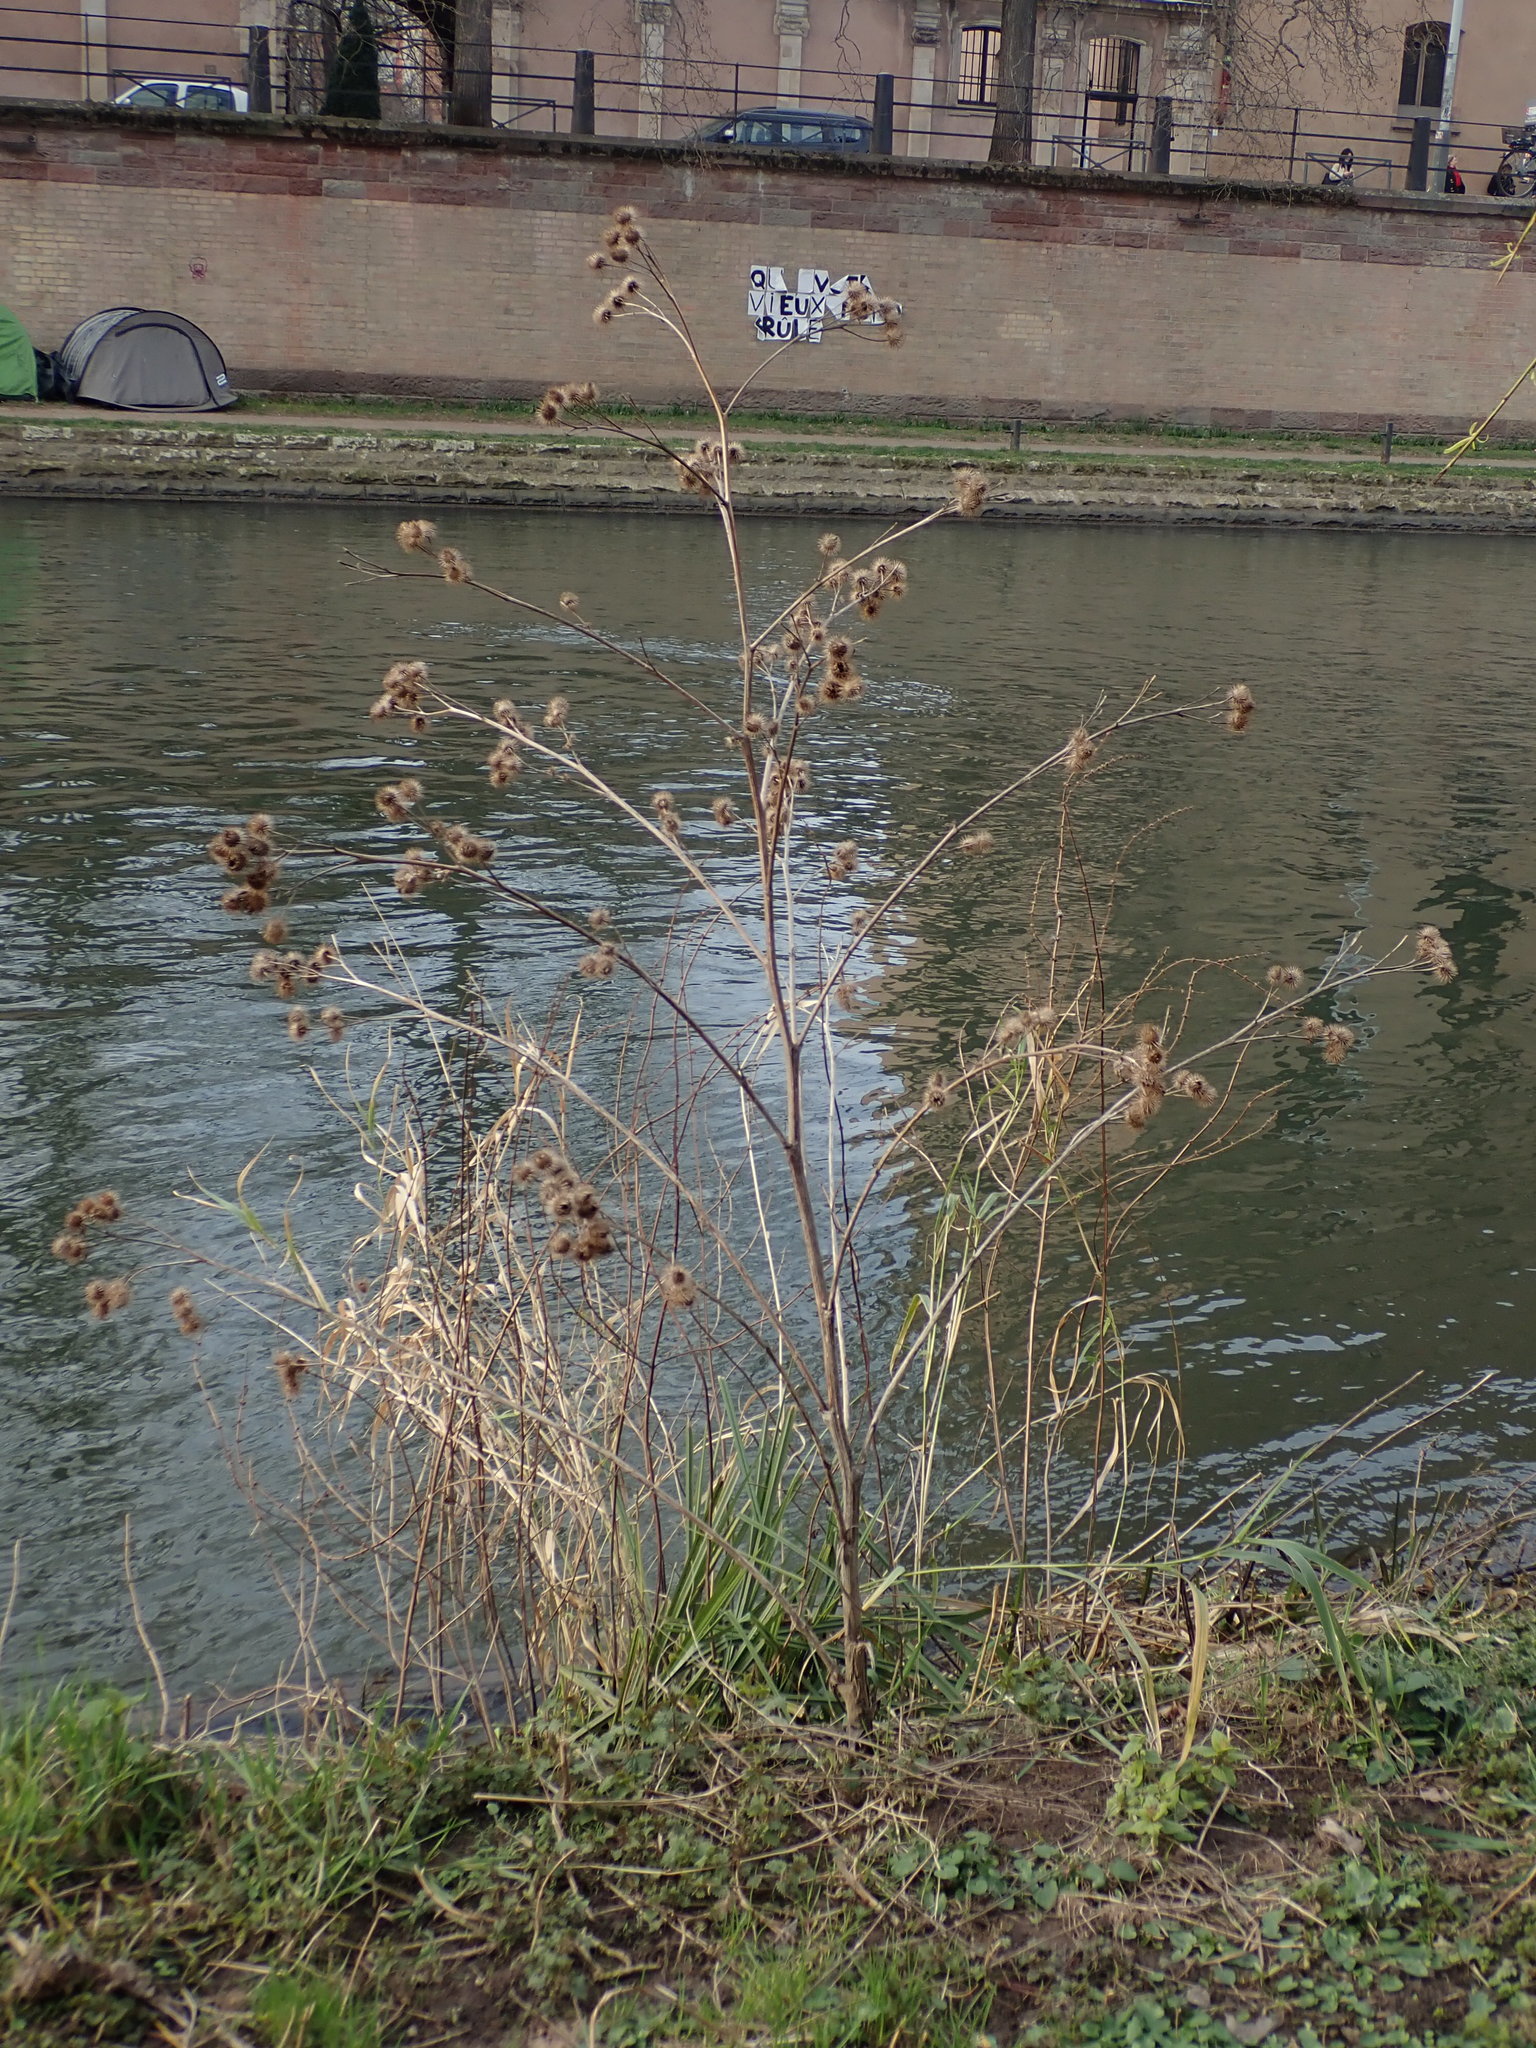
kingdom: Plantae
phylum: Tracheophyta
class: Magnoliopsida
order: Asterales
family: Asteraceae
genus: Arctium
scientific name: Arctium lappa
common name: Greater burdock
